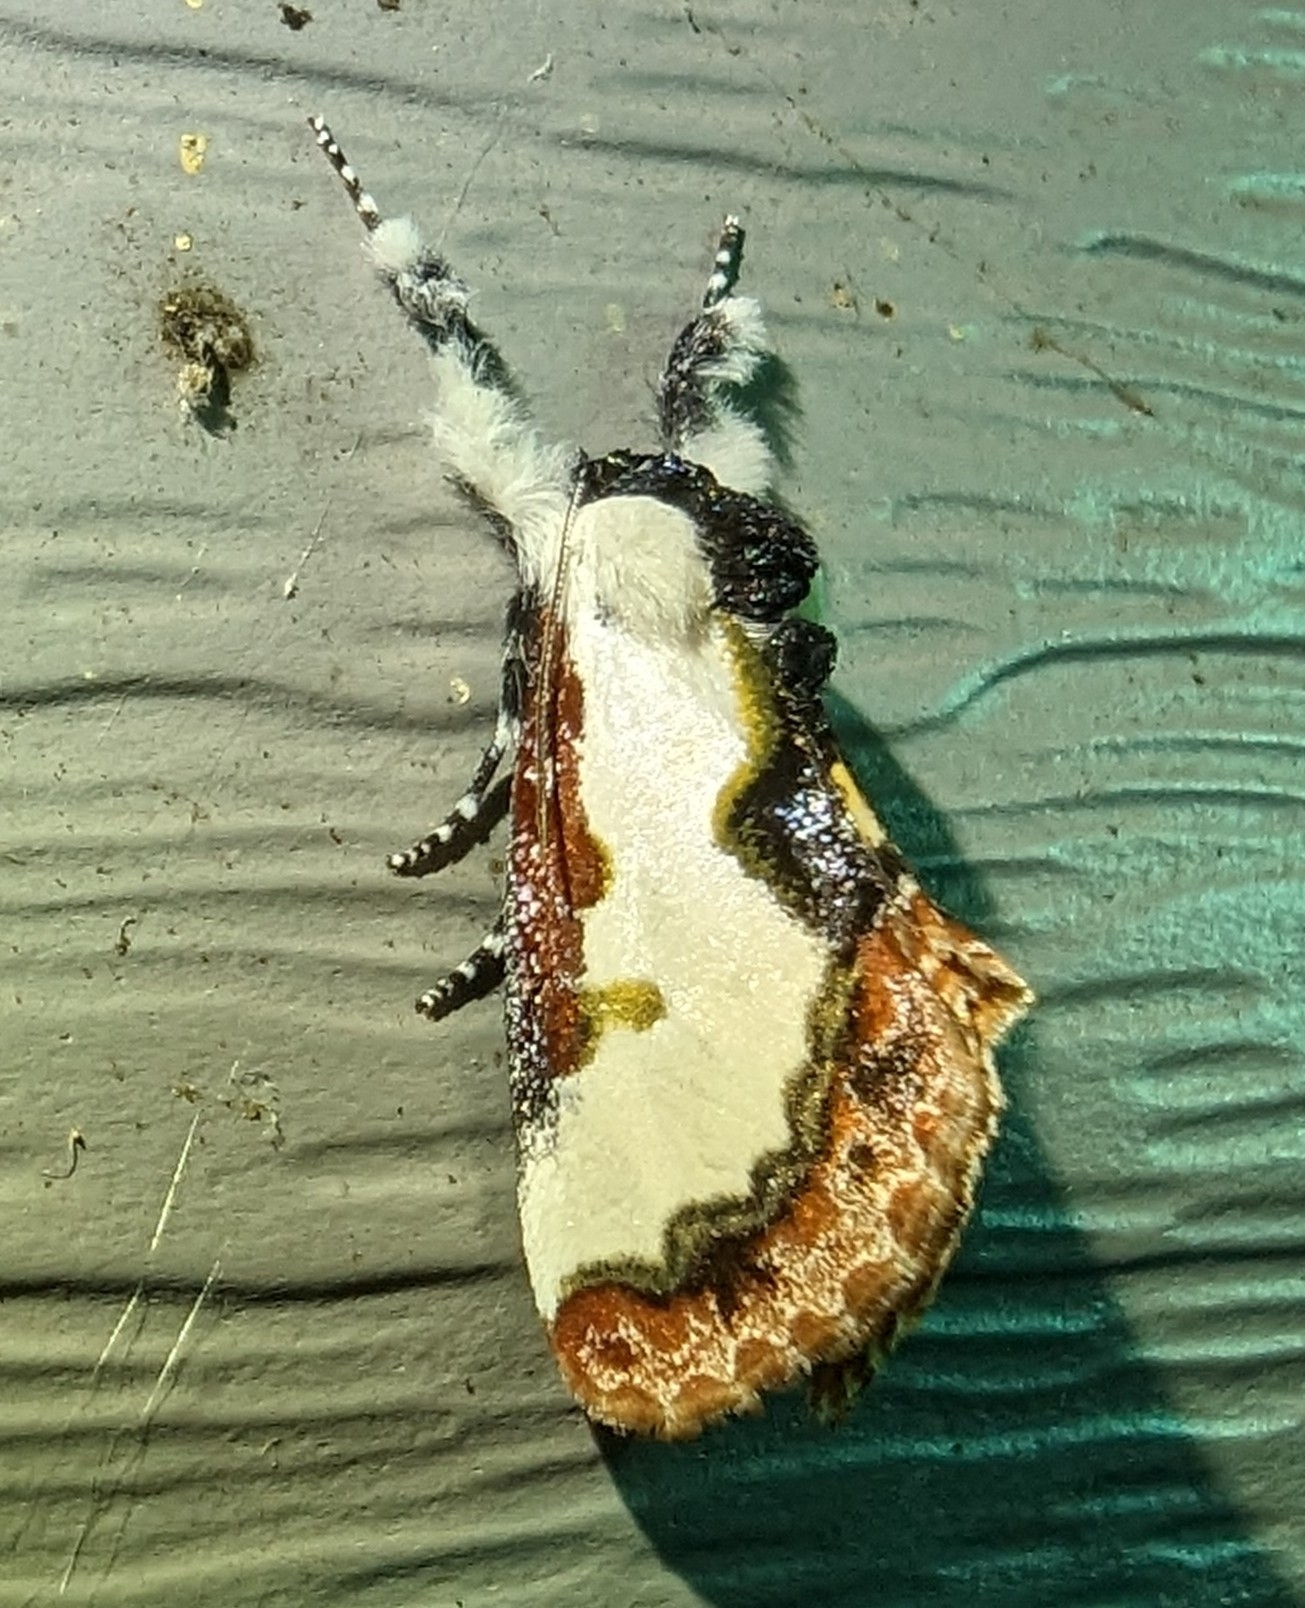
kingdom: Animalia
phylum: Arthropoda
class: Insecta
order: Lepidoptera
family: Noctuidae
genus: Eudryas
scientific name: Eudryas unio
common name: Pearly wood-nymph
